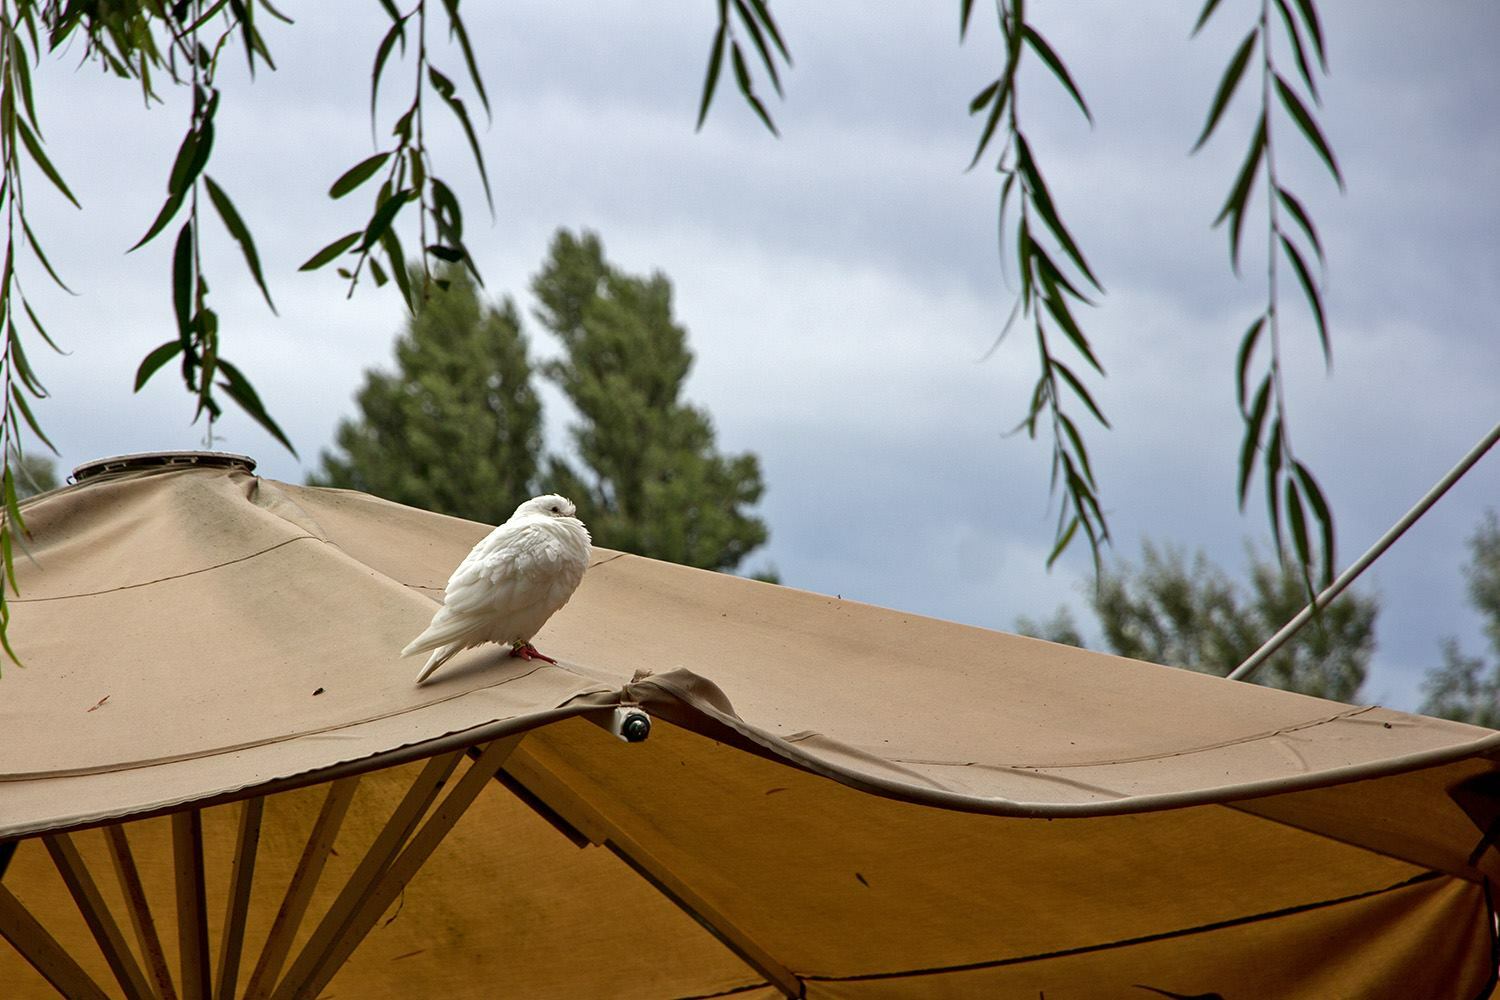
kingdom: Animalia
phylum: Chordata
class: Aves
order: Columbiformes
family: Columbidae
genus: Columba
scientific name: Columba livia
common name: Rock pigeon
